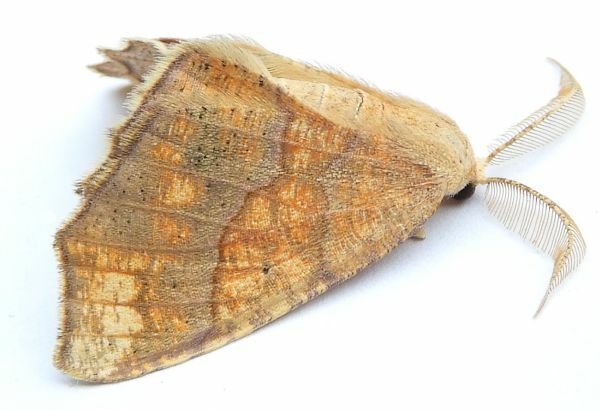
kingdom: Animalia
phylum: Arthropoda
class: Insecta
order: Lepidoptera
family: Geometridae
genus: Besma
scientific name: Besma quercivoraria
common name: Oak besma
